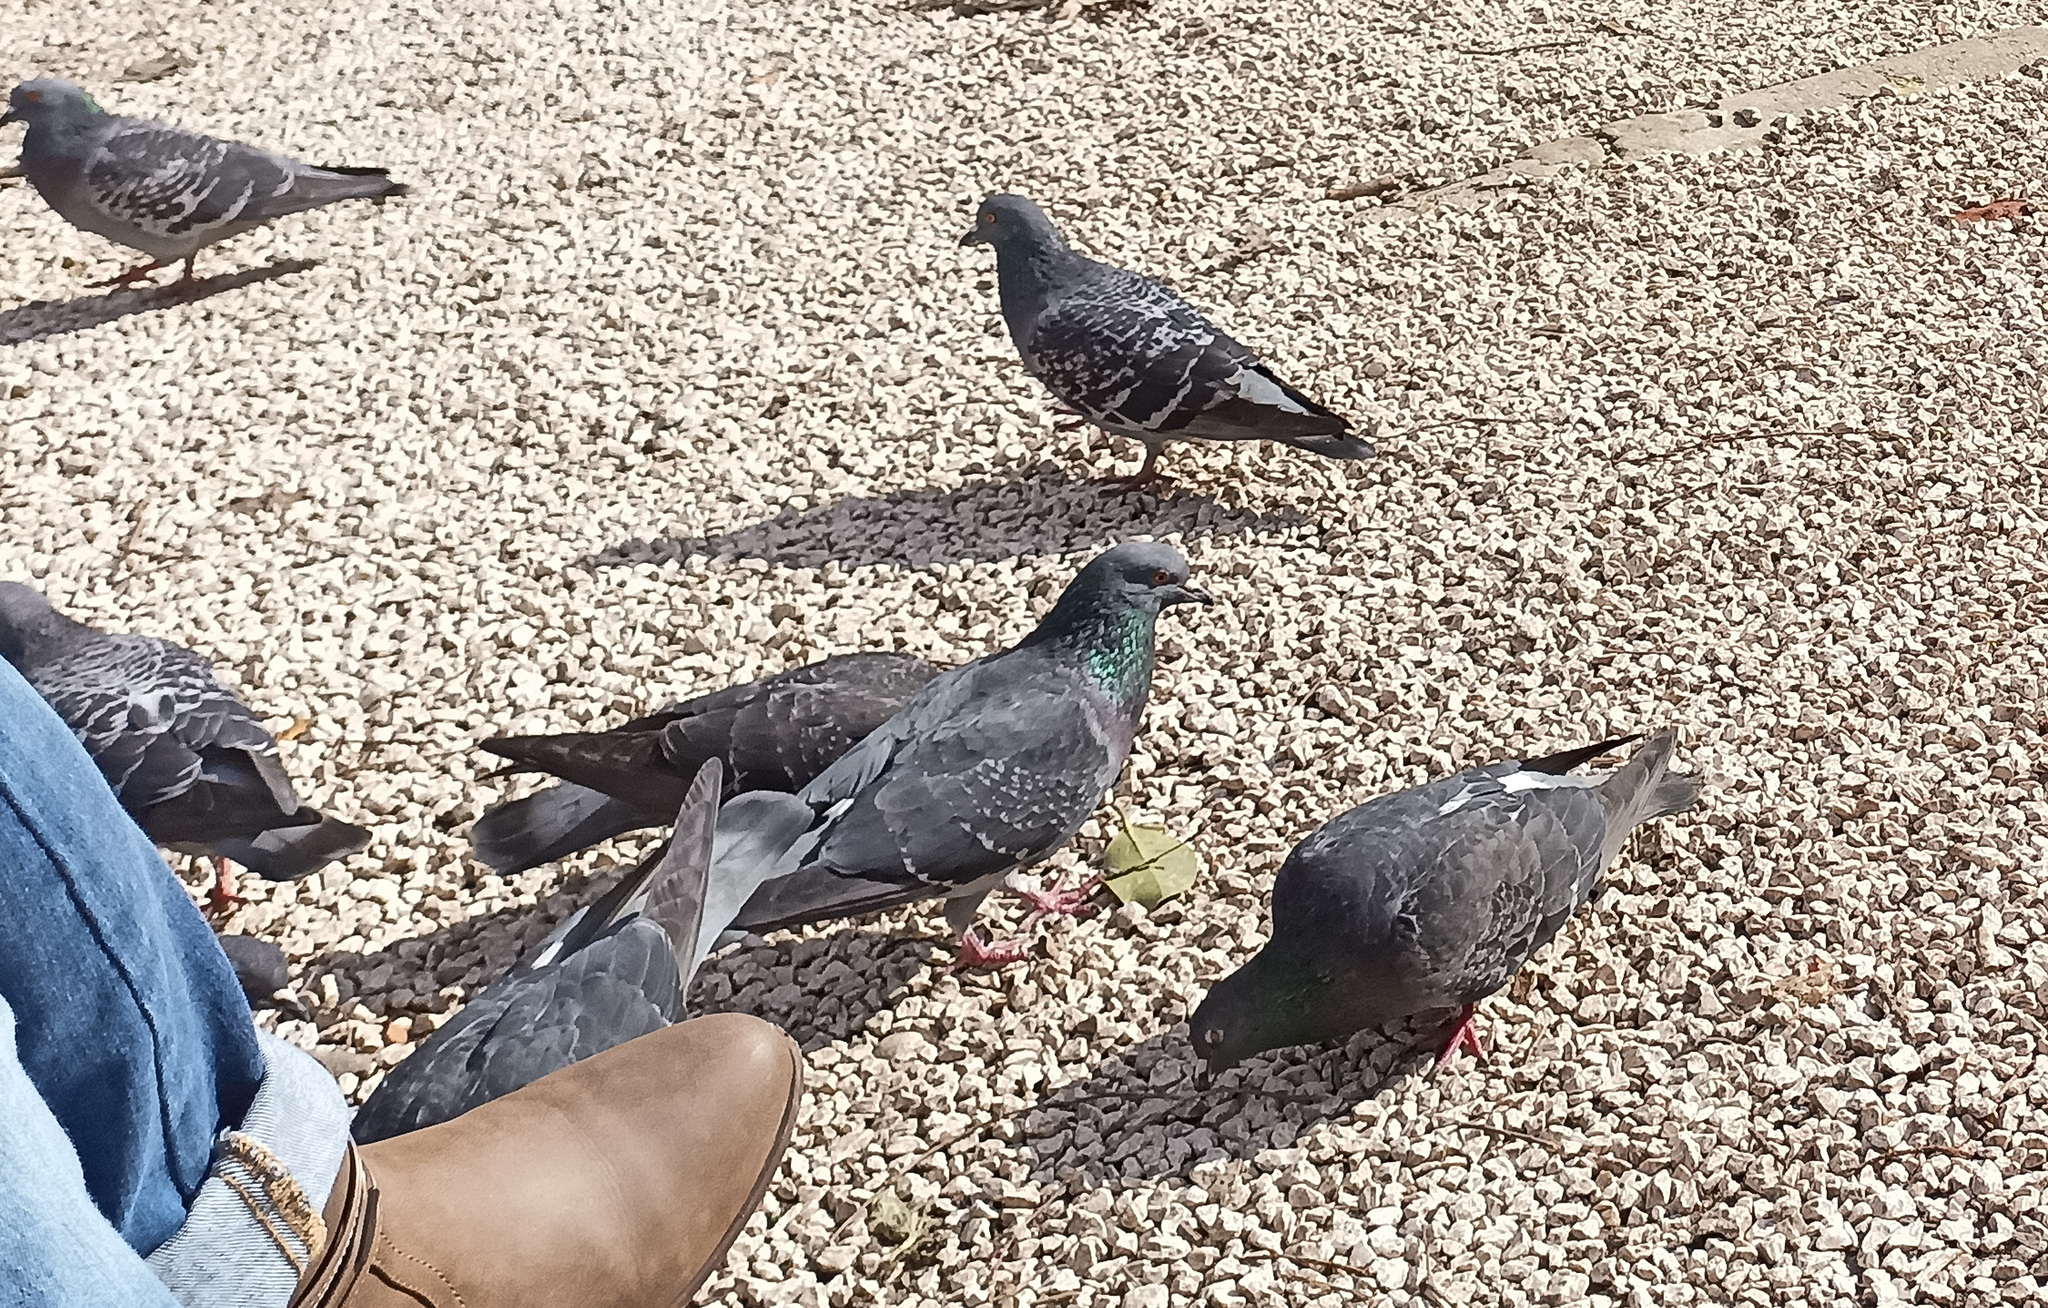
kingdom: Animalia
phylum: Chordata
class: Aves
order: Columbiformes
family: Columbidae
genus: Columba
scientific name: Columba livia
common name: Rock pigeon
